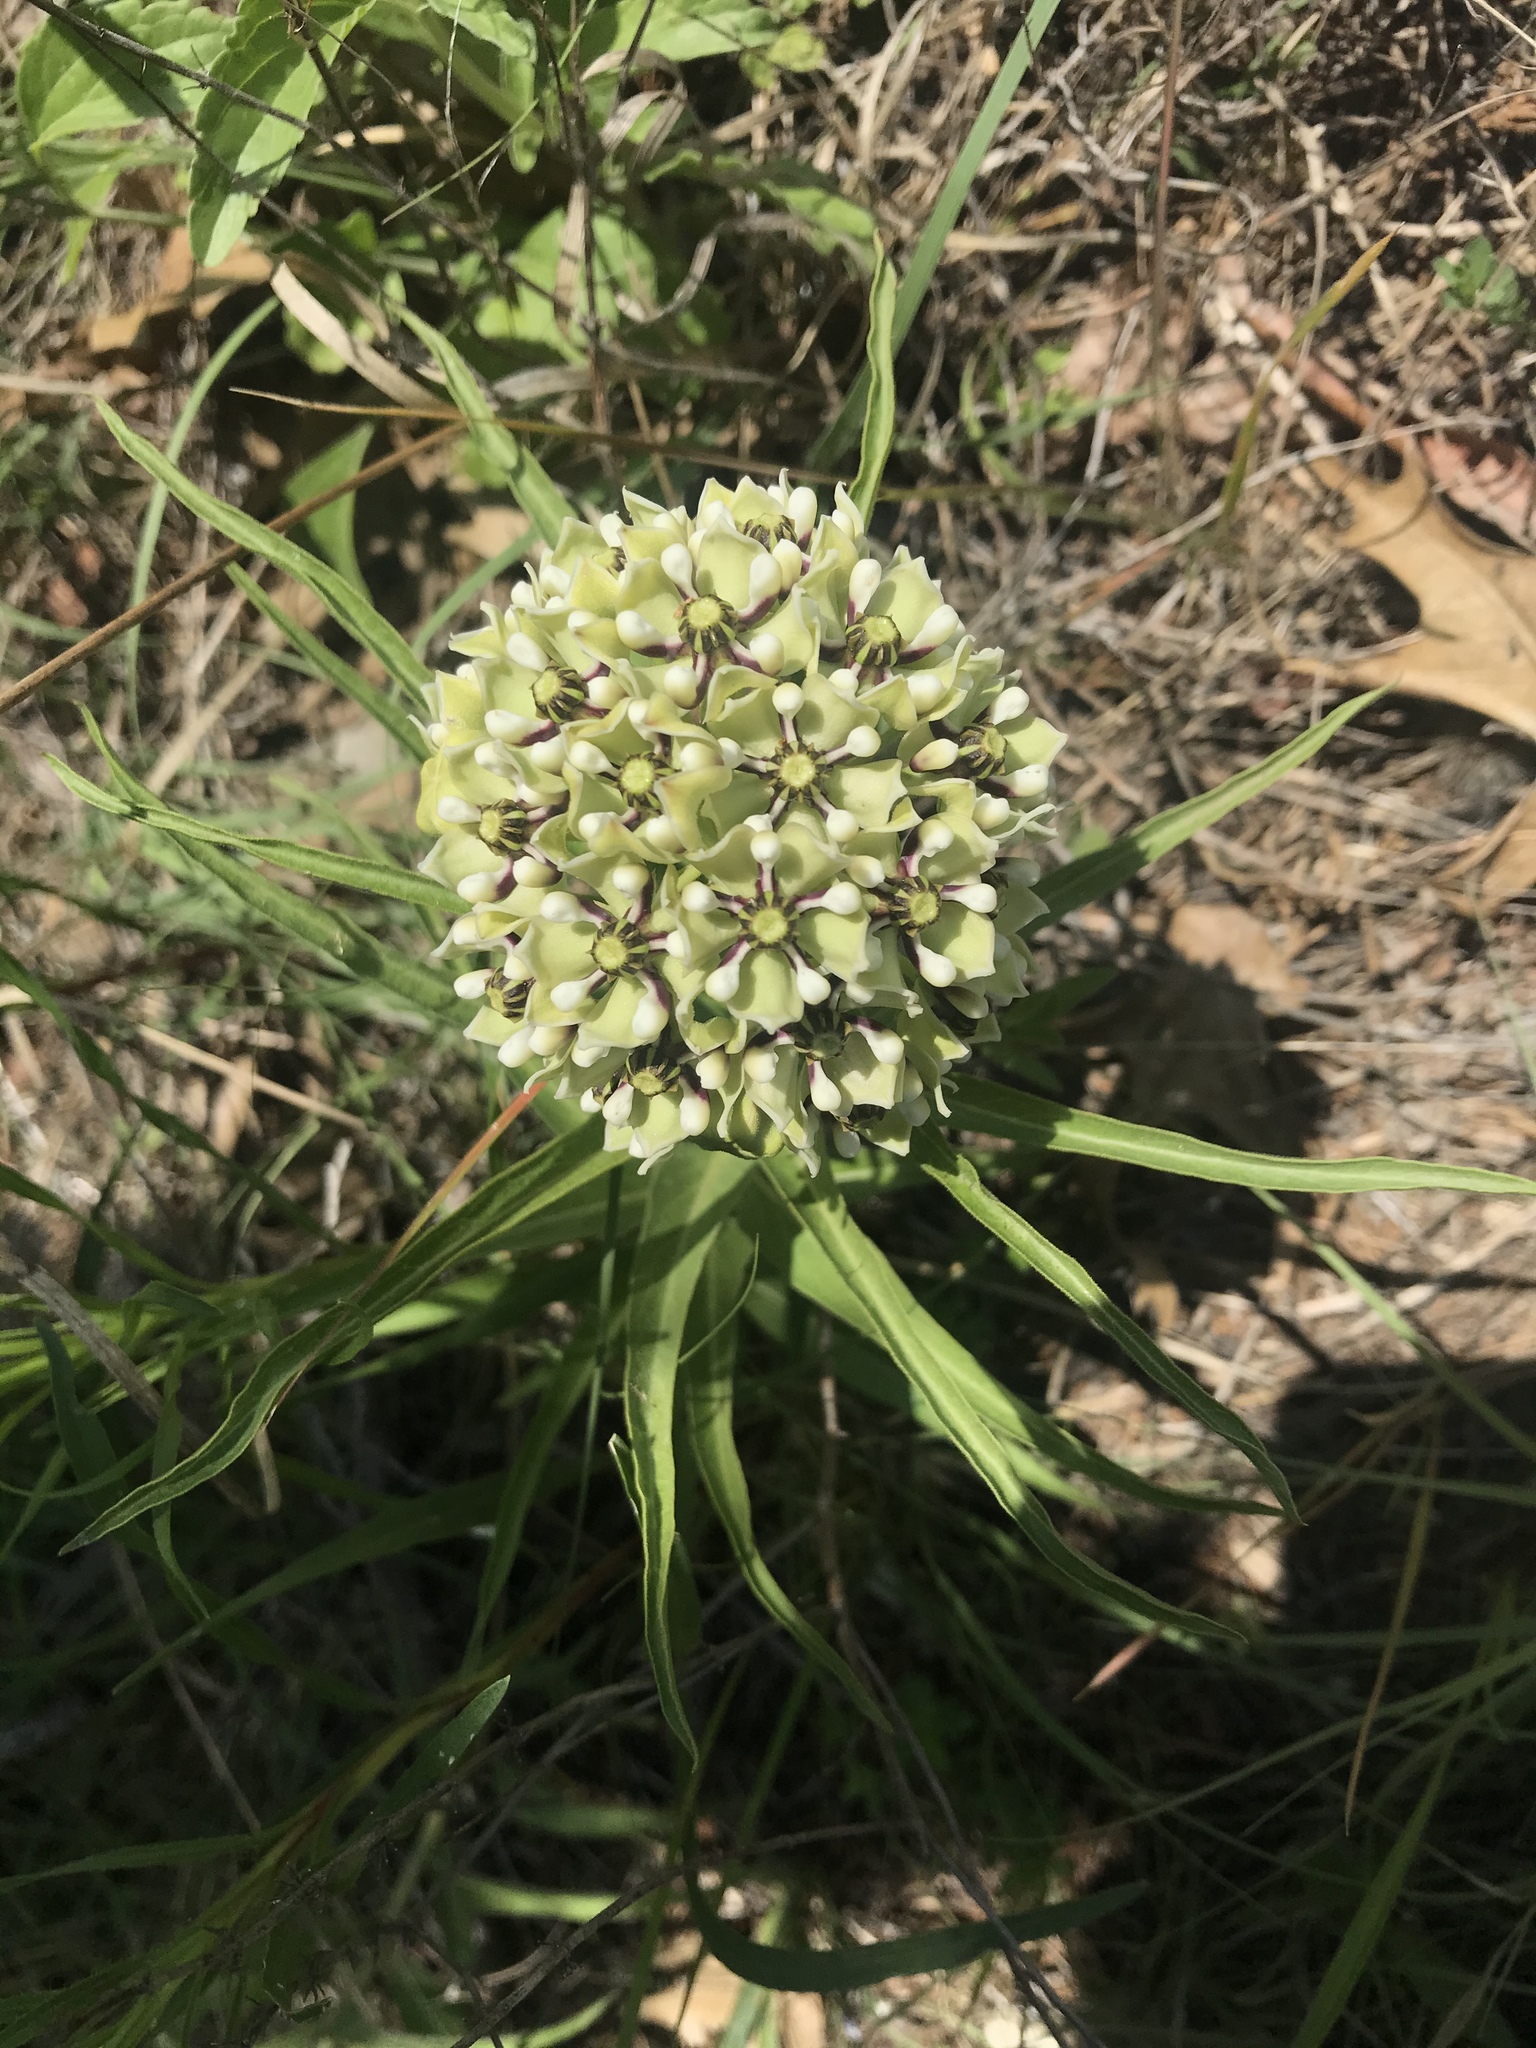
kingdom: Plantae
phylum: Tracheophyta
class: Magnoliopsida
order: Gentianales
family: Apocynaceae
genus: Asclepias
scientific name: Asclepias asperula
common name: Antelope horns
